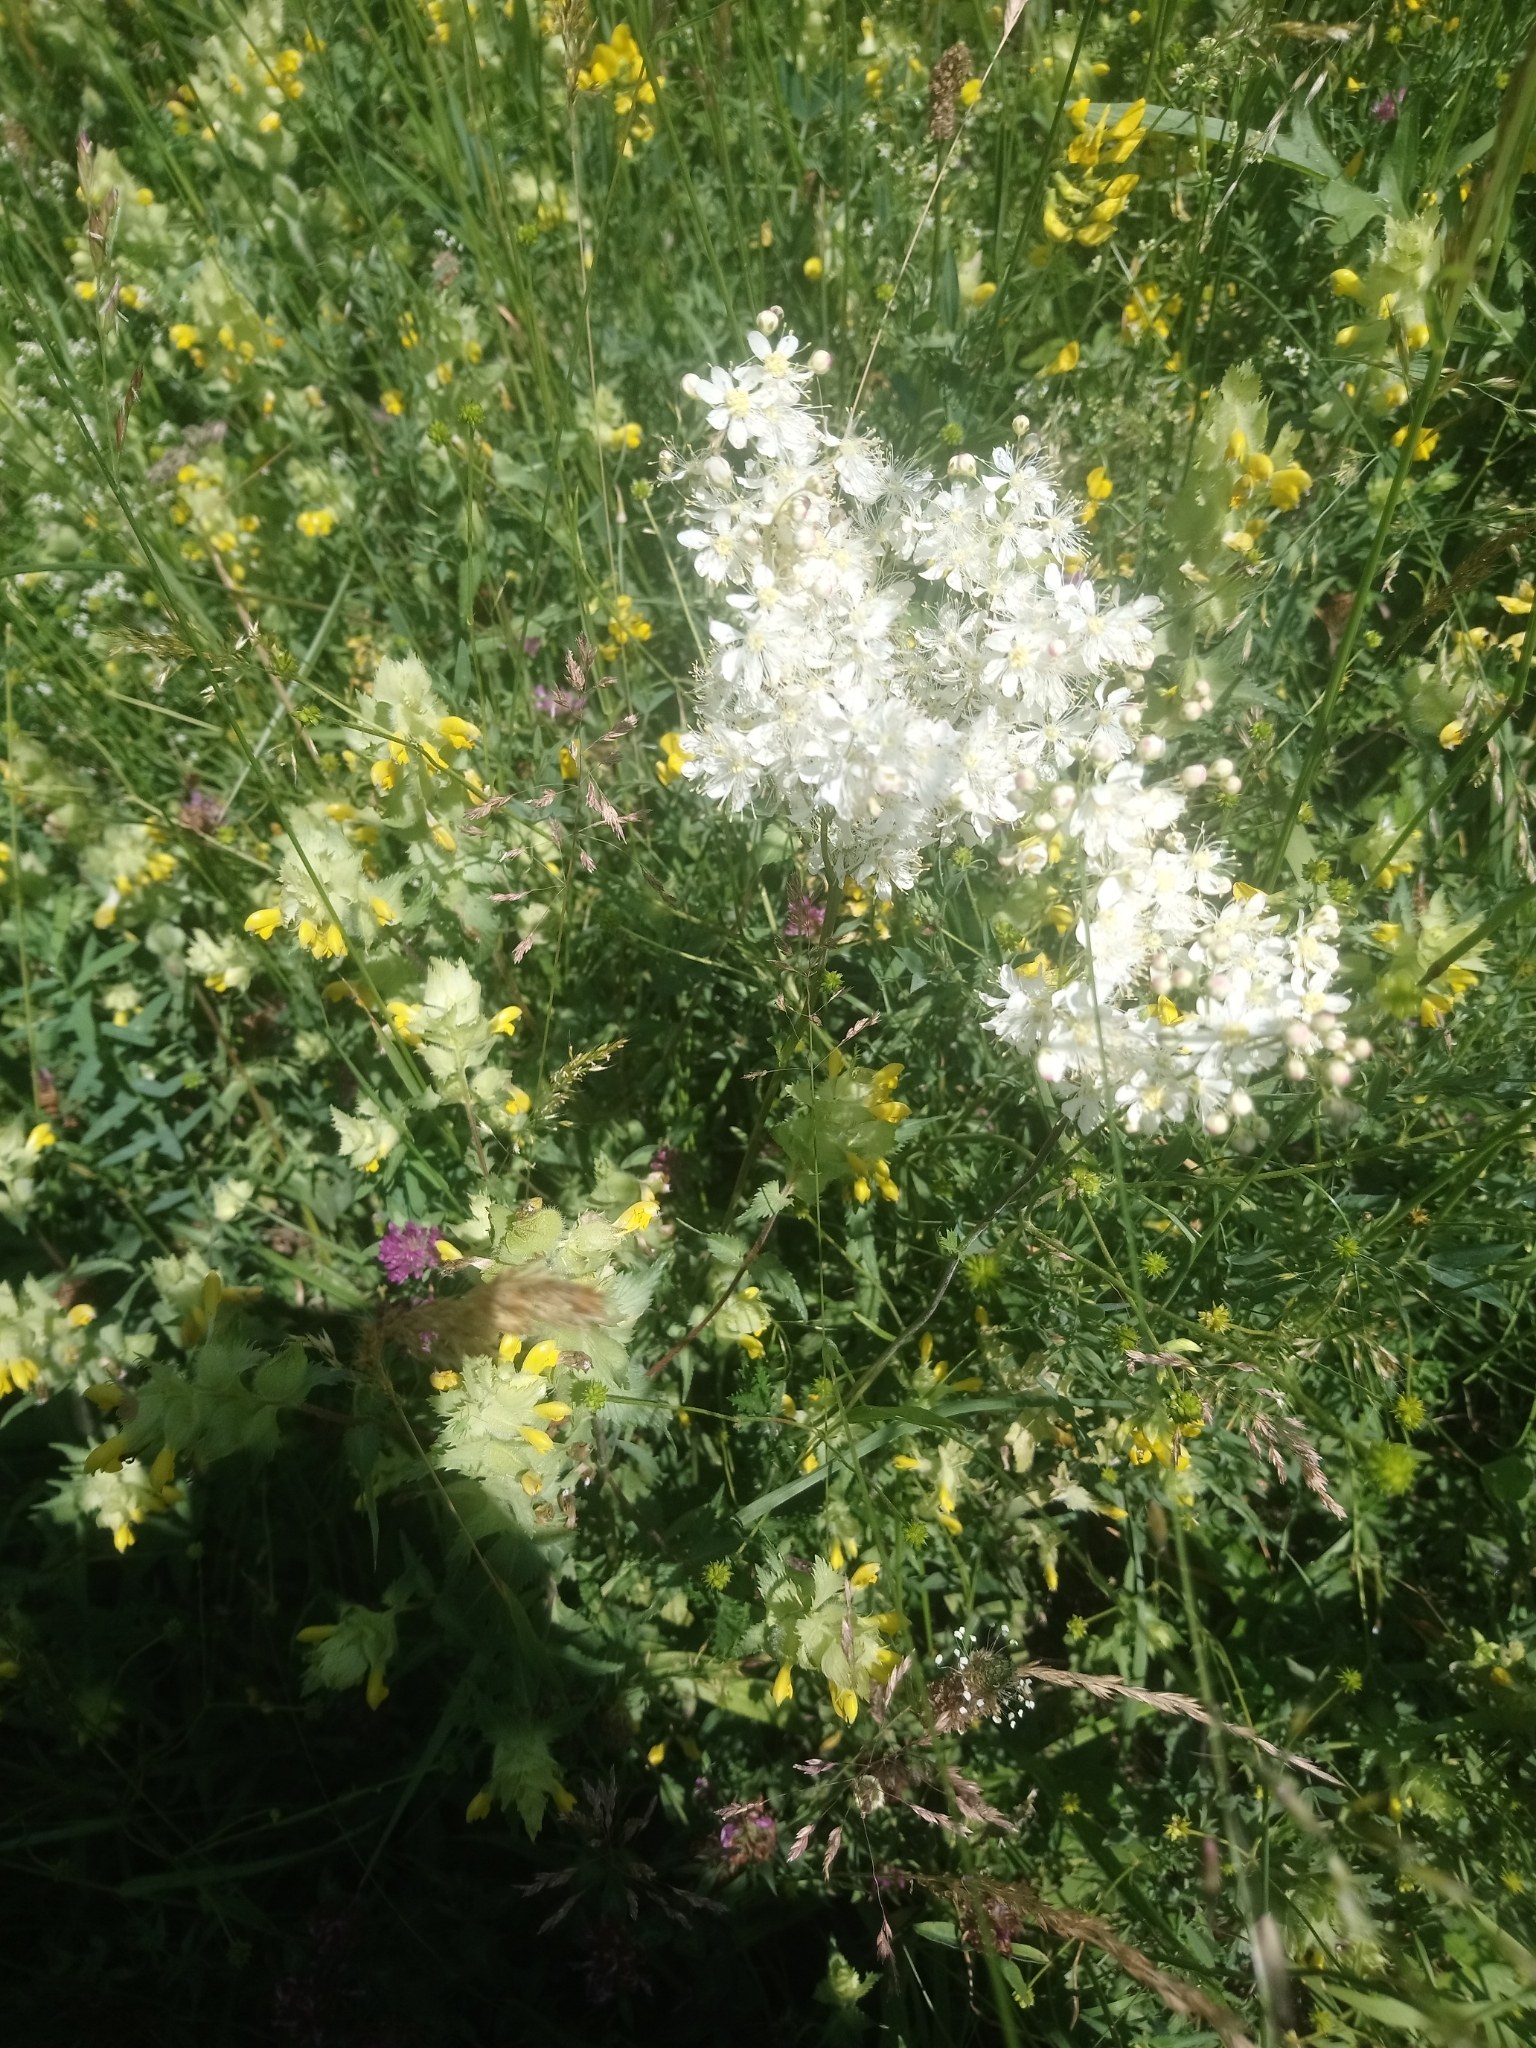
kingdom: Plantae
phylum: Tracheophyta
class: Magnoliopsida
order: Rosales
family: Rosaceae
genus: Filipendula
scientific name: Filipendula vulgaris
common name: Dropwort
